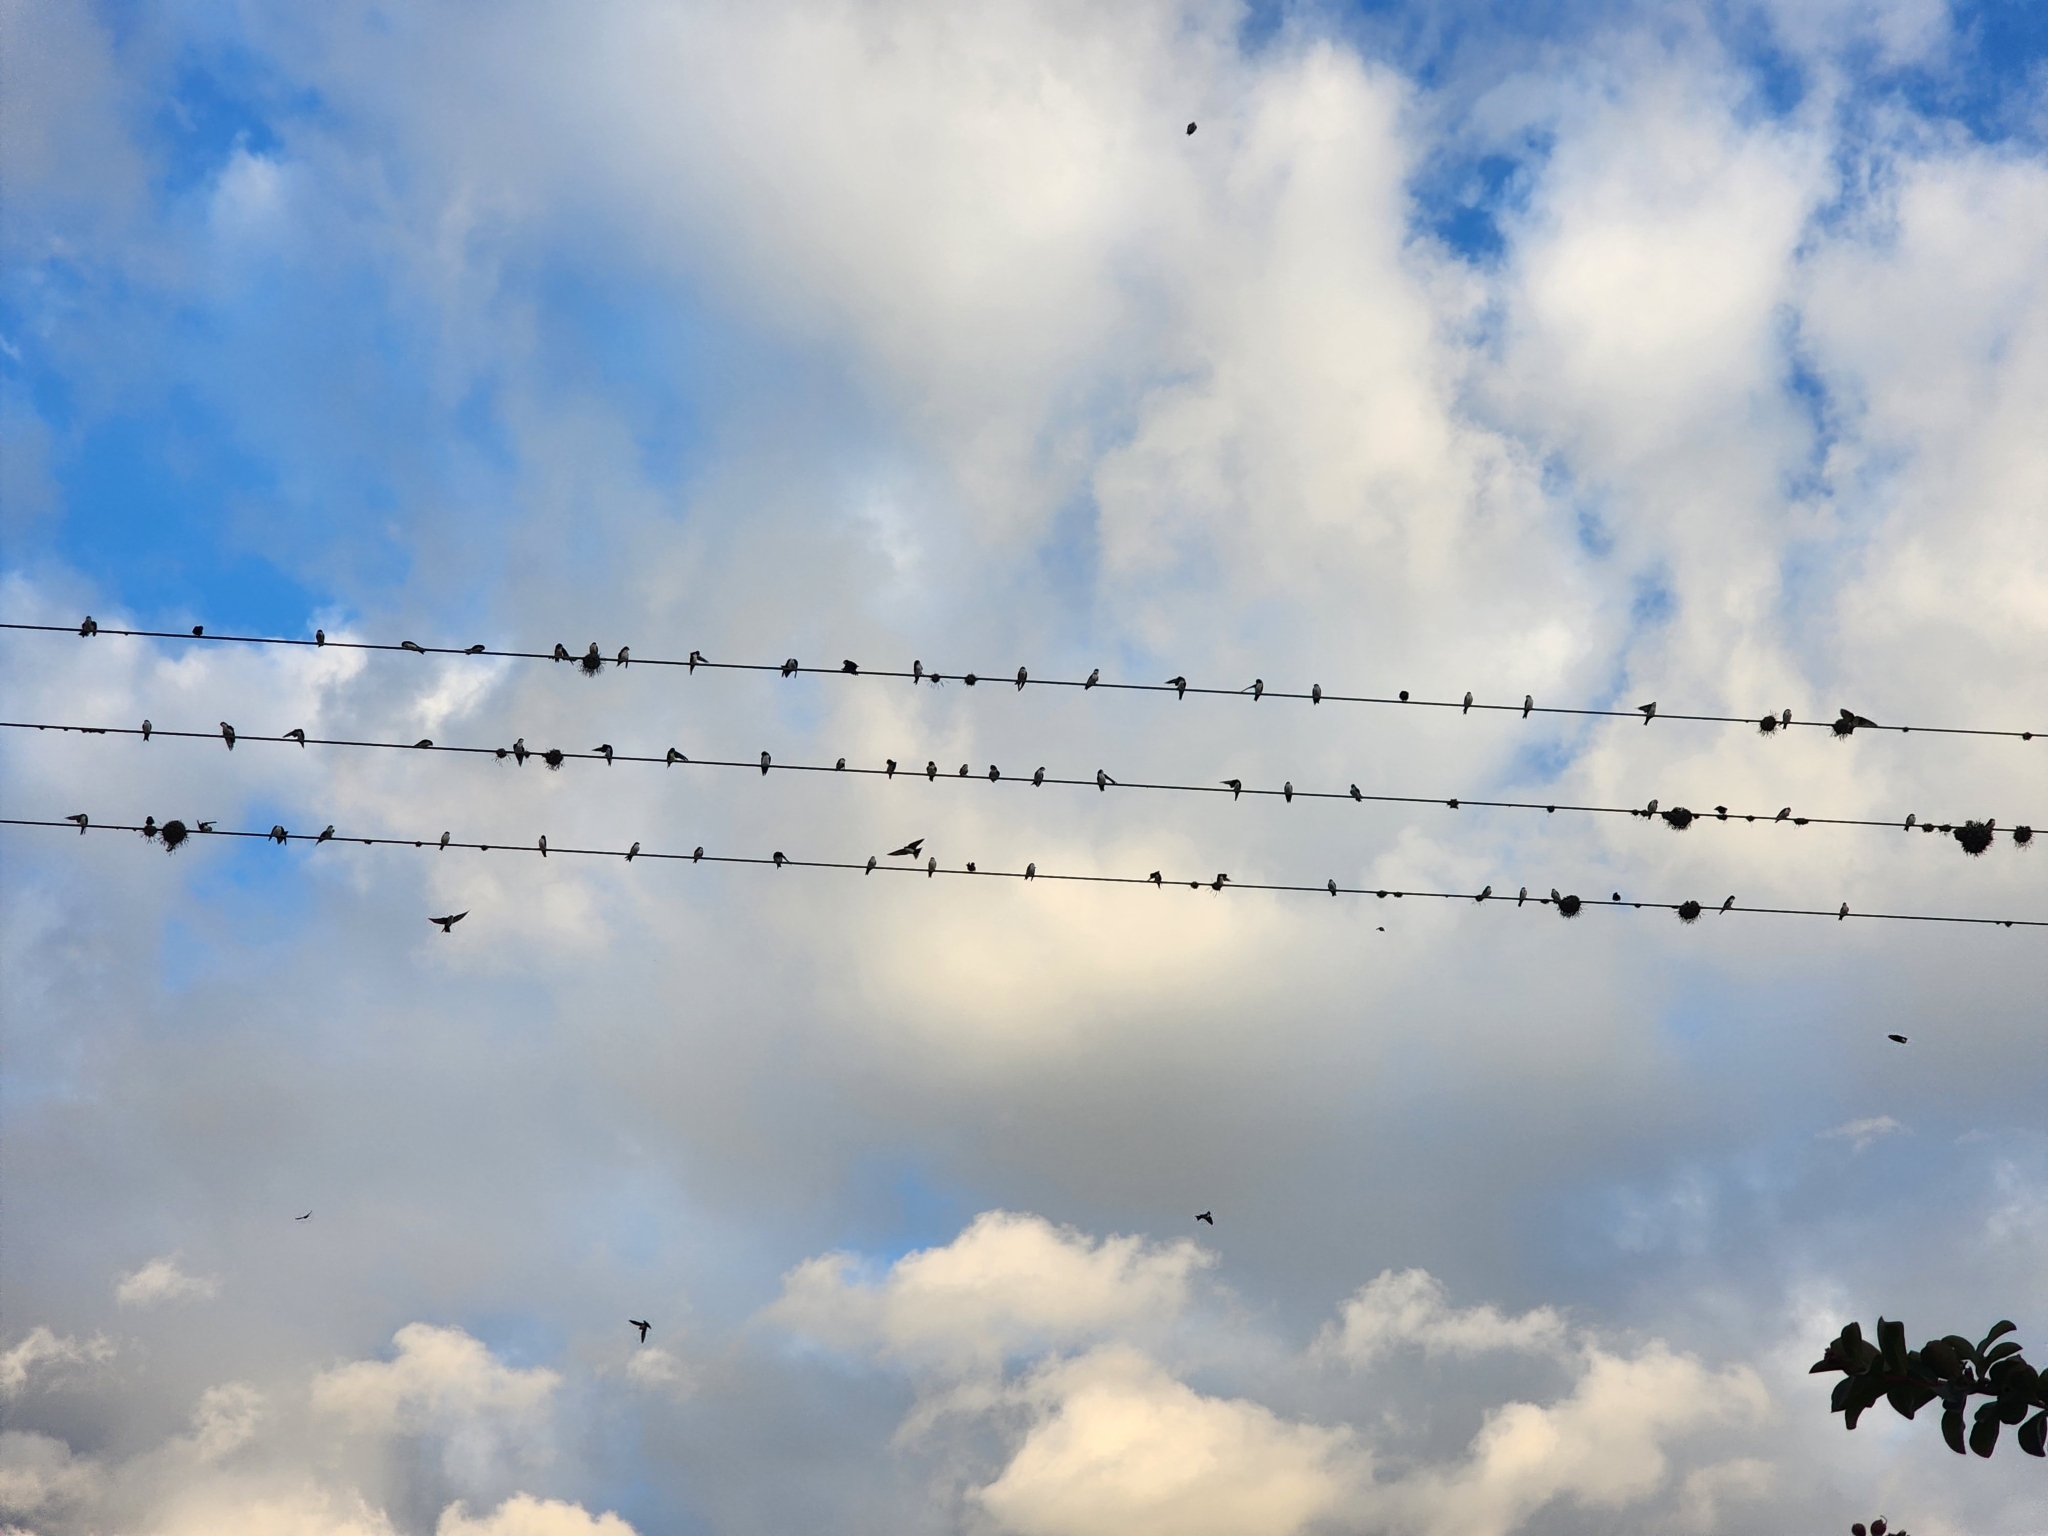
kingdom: Animalia
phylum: Chordata
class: Aves
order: Passeriformes
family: Hirundinidae
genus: Notiochelidon
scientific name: Notiochelidon cyanoleuca
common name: Blue-and-white swallow
